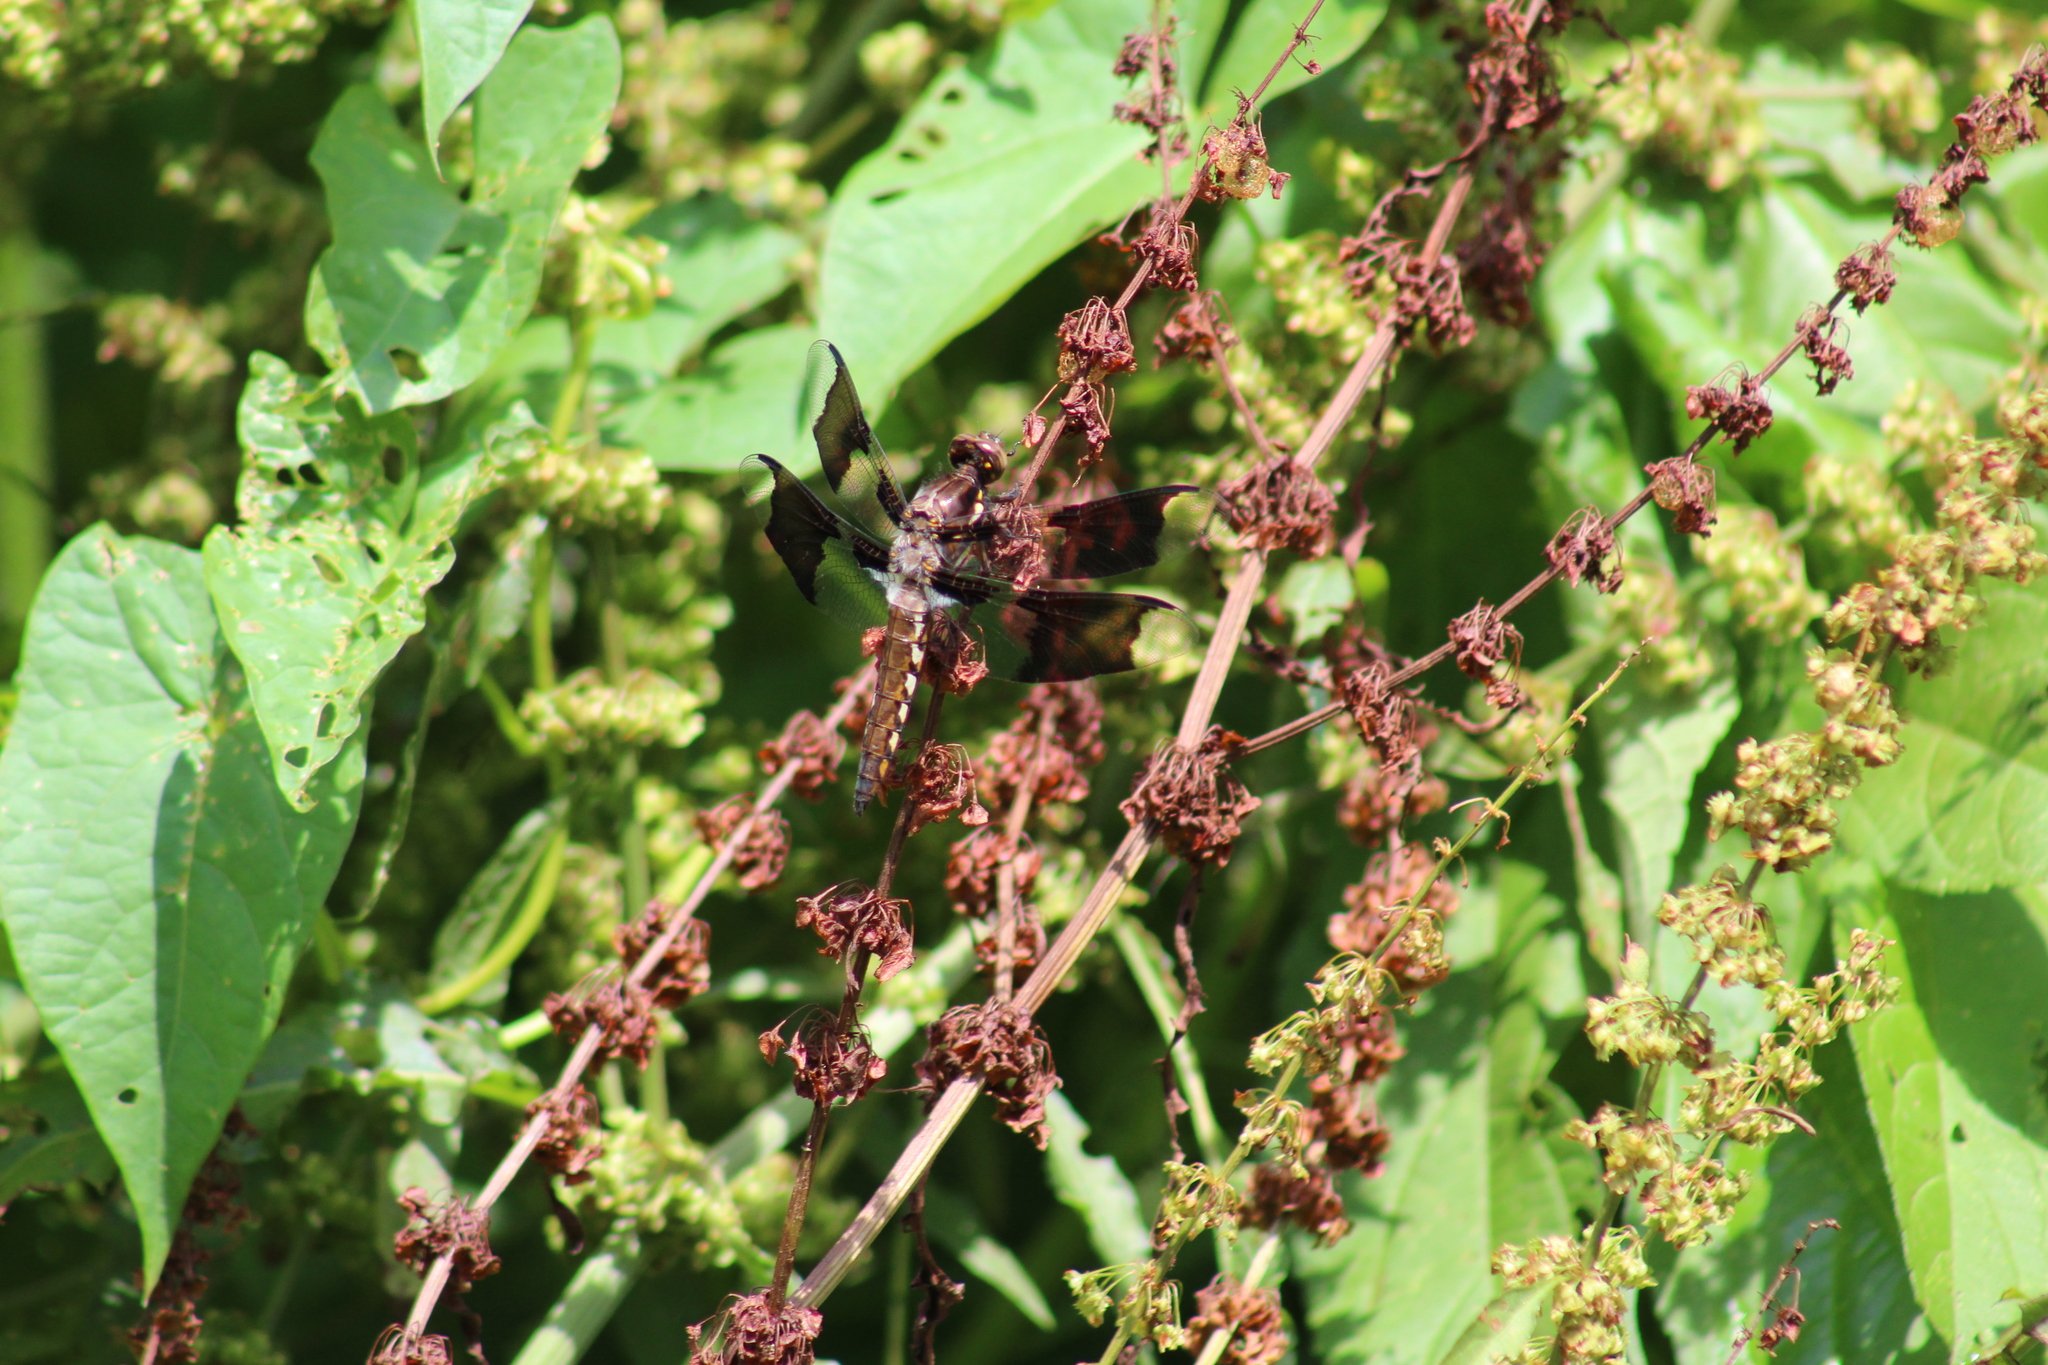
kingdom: Animalia
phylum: Arthropoda
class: Insecta
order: Odonata
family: Libellulidae
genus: Plathemis
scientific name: Plathemis lydia
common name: Common whitetail
